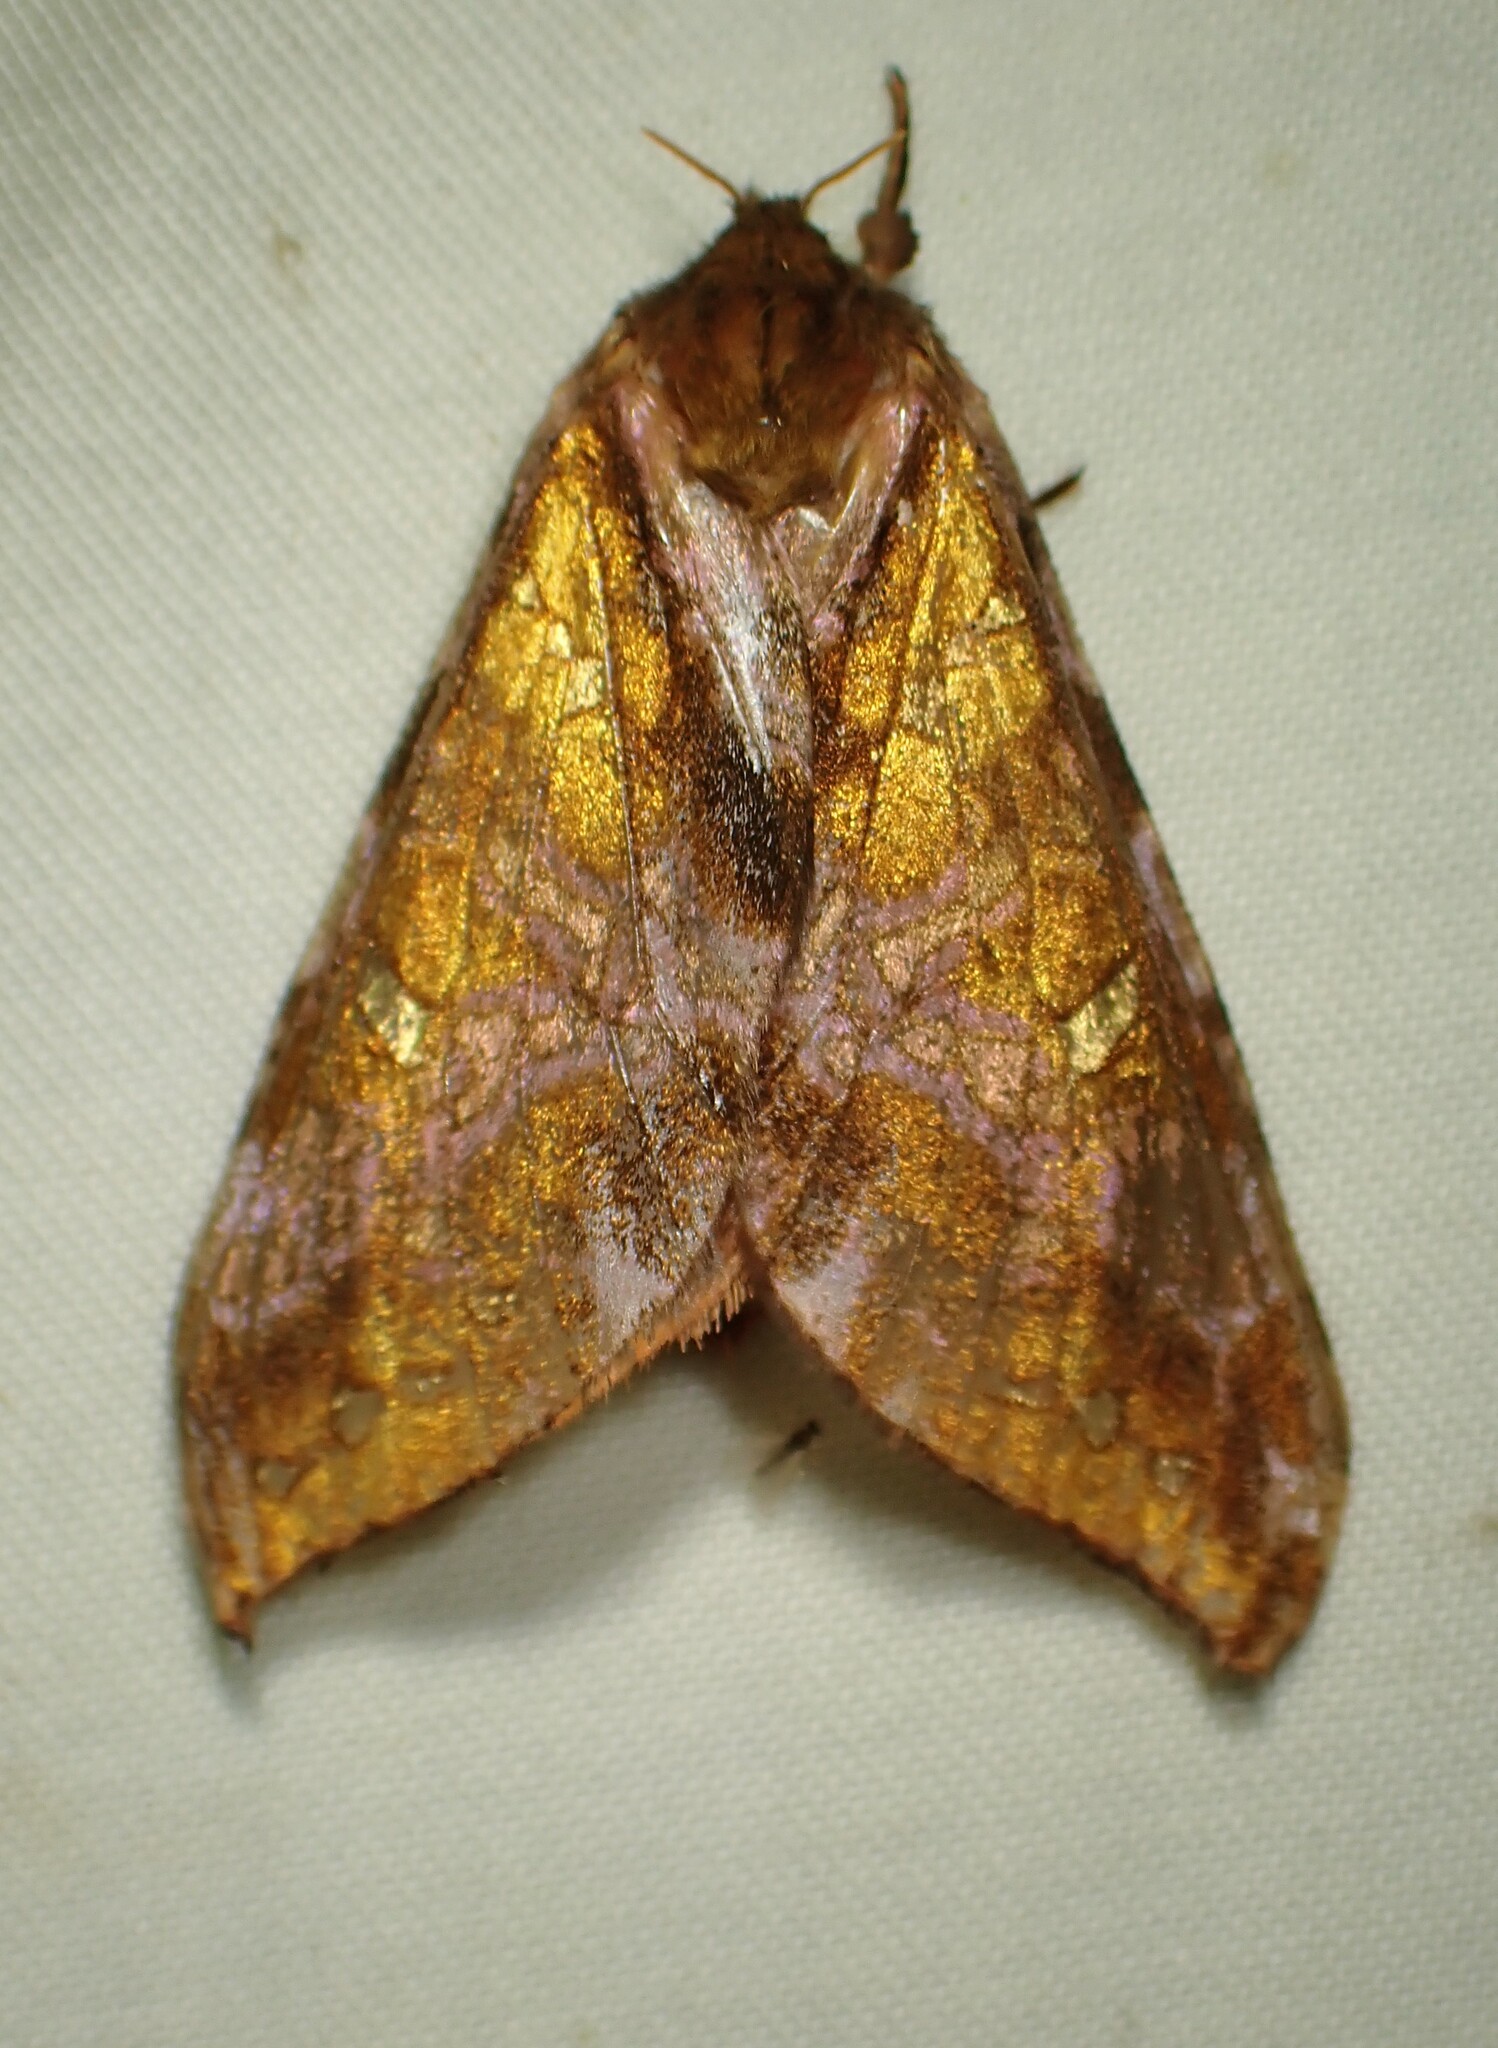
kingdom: Animalia
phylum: Arthropoda
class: Insecta
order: Lepidoptera
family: Hepialidae
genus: Sthenopis
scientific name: Sthenopis pretiosus
